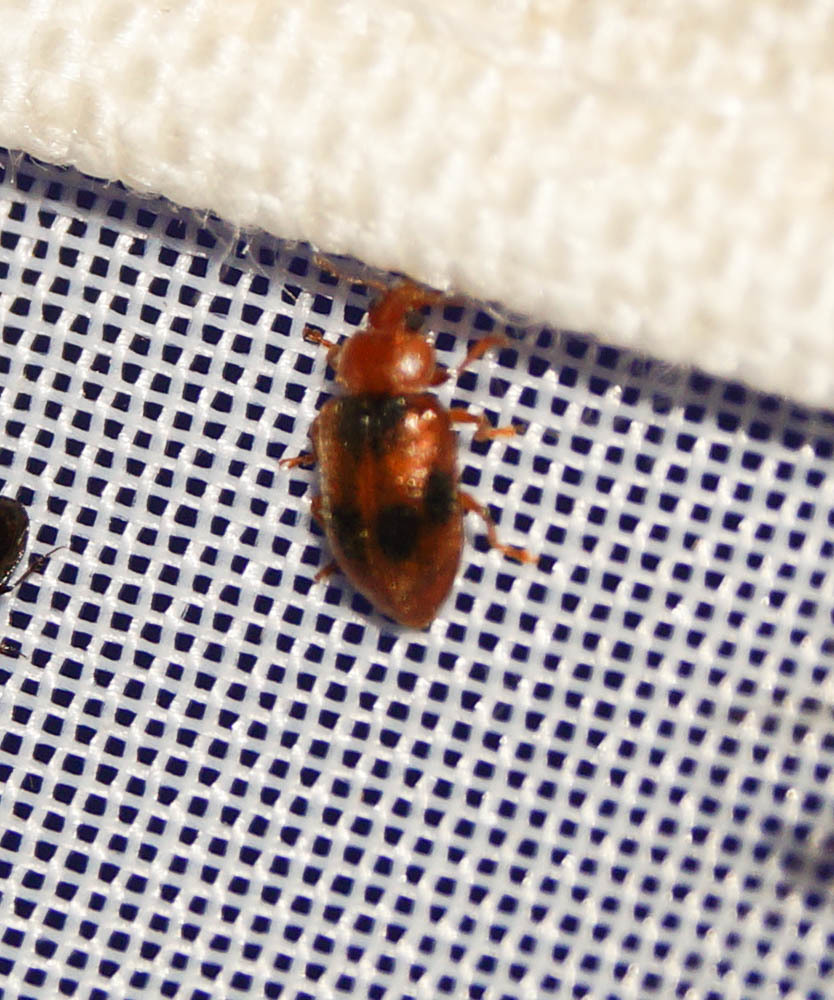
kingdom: Animalia
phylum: Arthropoda
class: Insecta
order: Coleoptera
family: Coccinellidae
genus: Coccidula
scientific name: Coccidula scutellata
